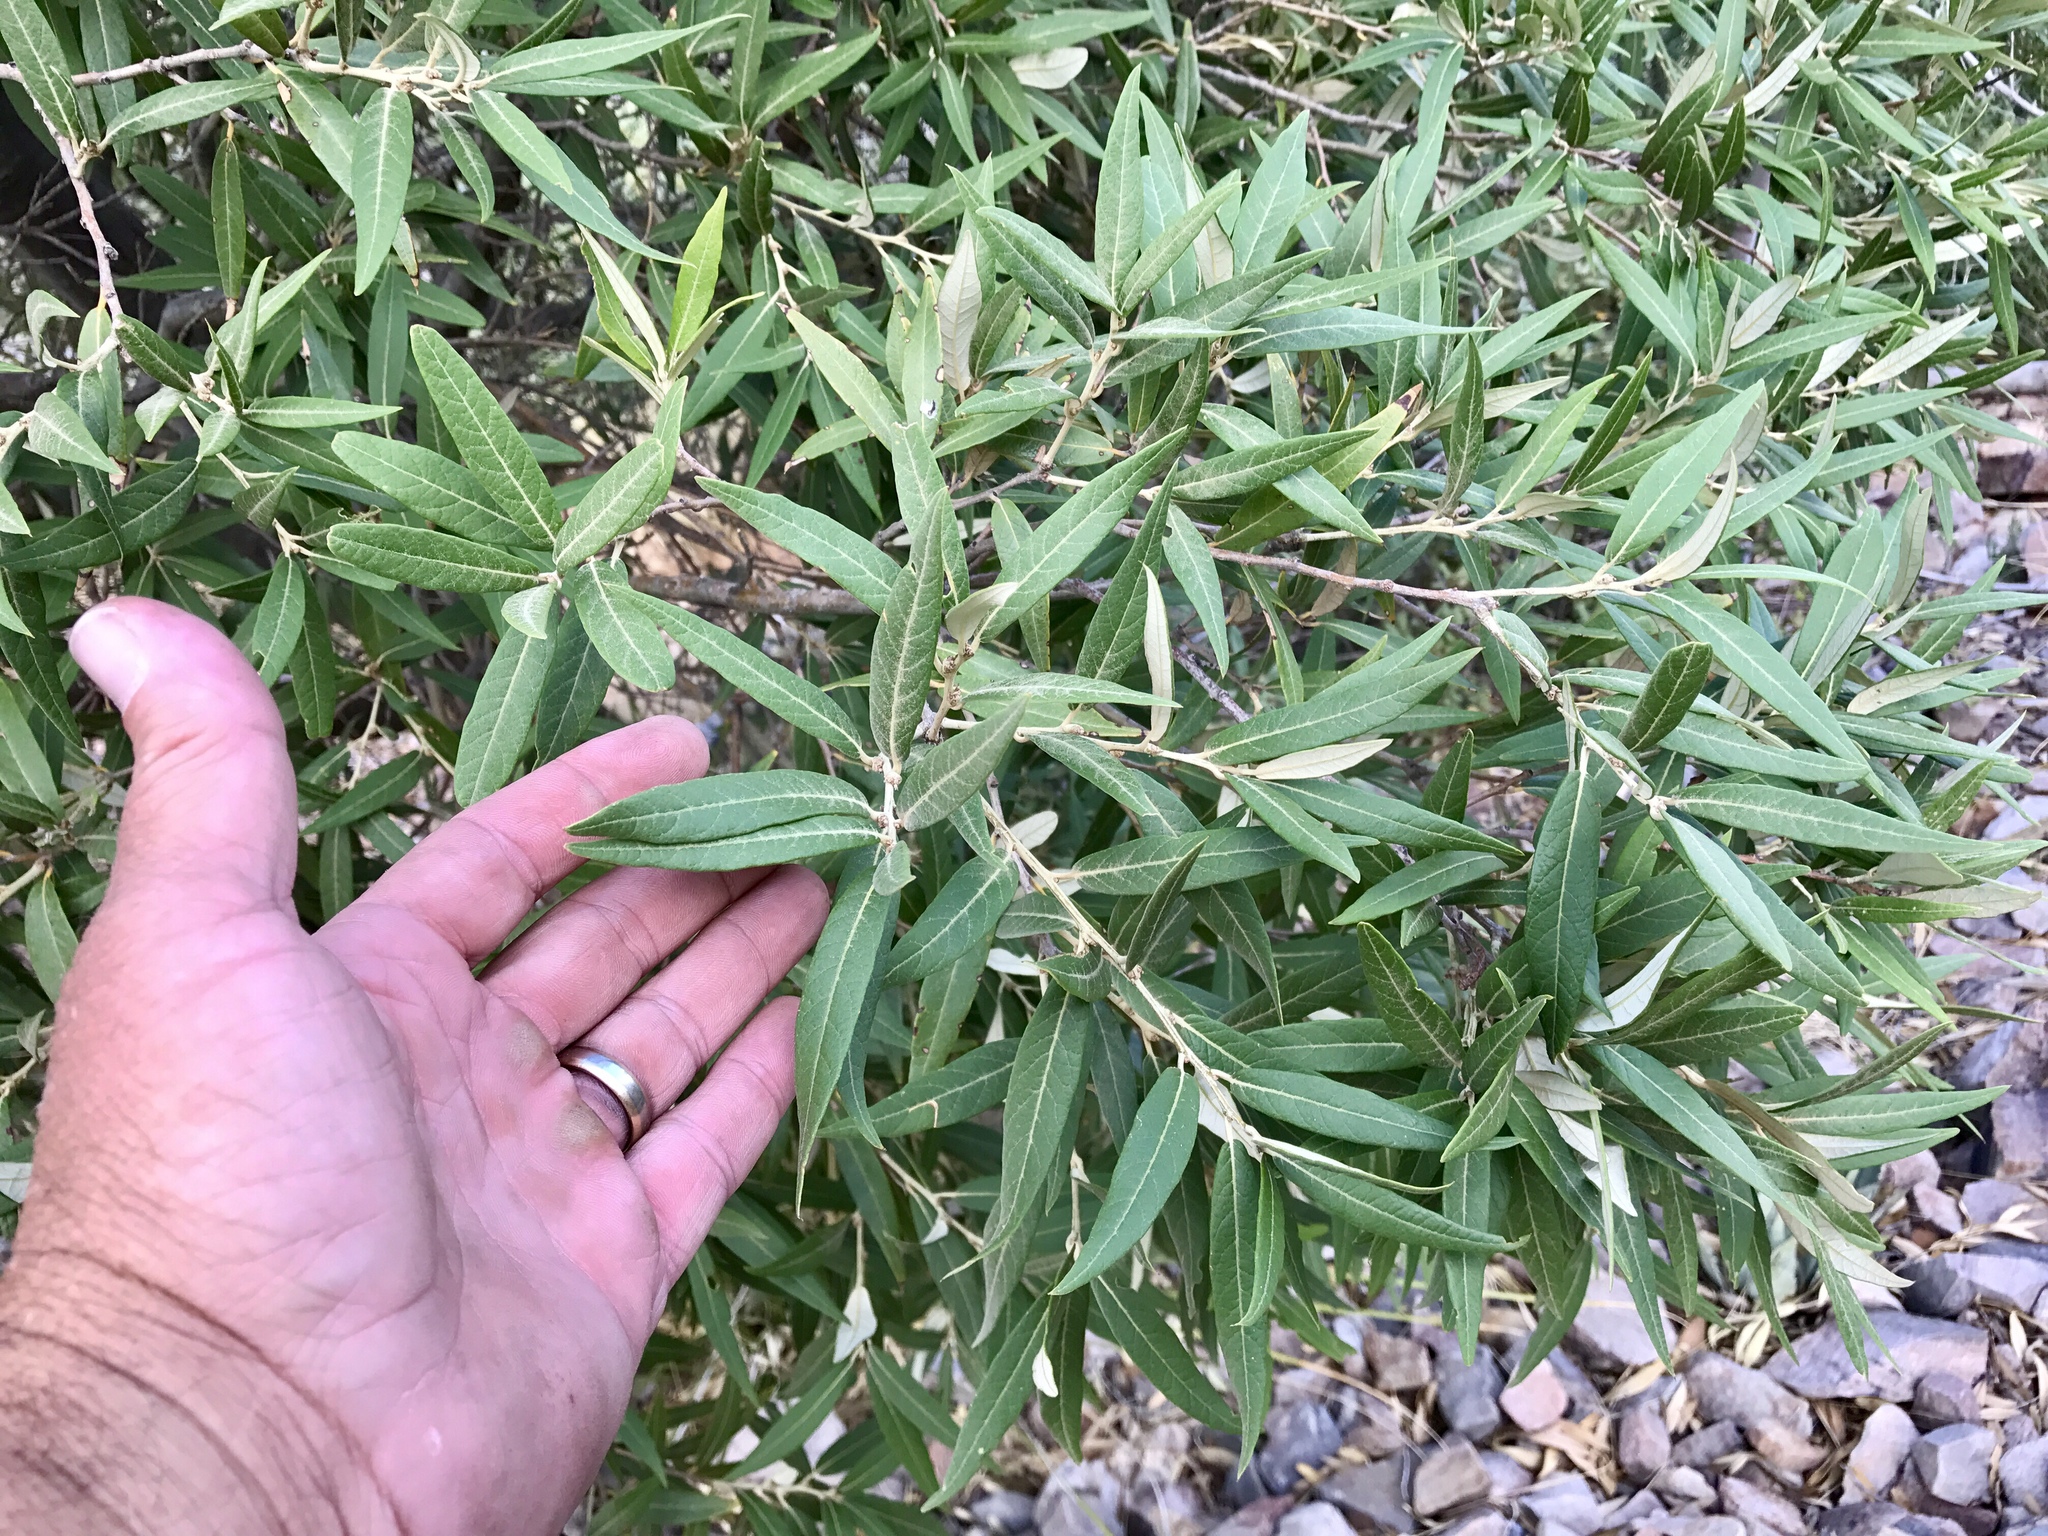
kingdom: Plantae
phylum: Tracheophyta
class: Magnoliopsida
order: Fagales
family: Fagaceae
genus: Quercus
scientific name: Quercus hypoleucoides
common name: Silverleaf oak
